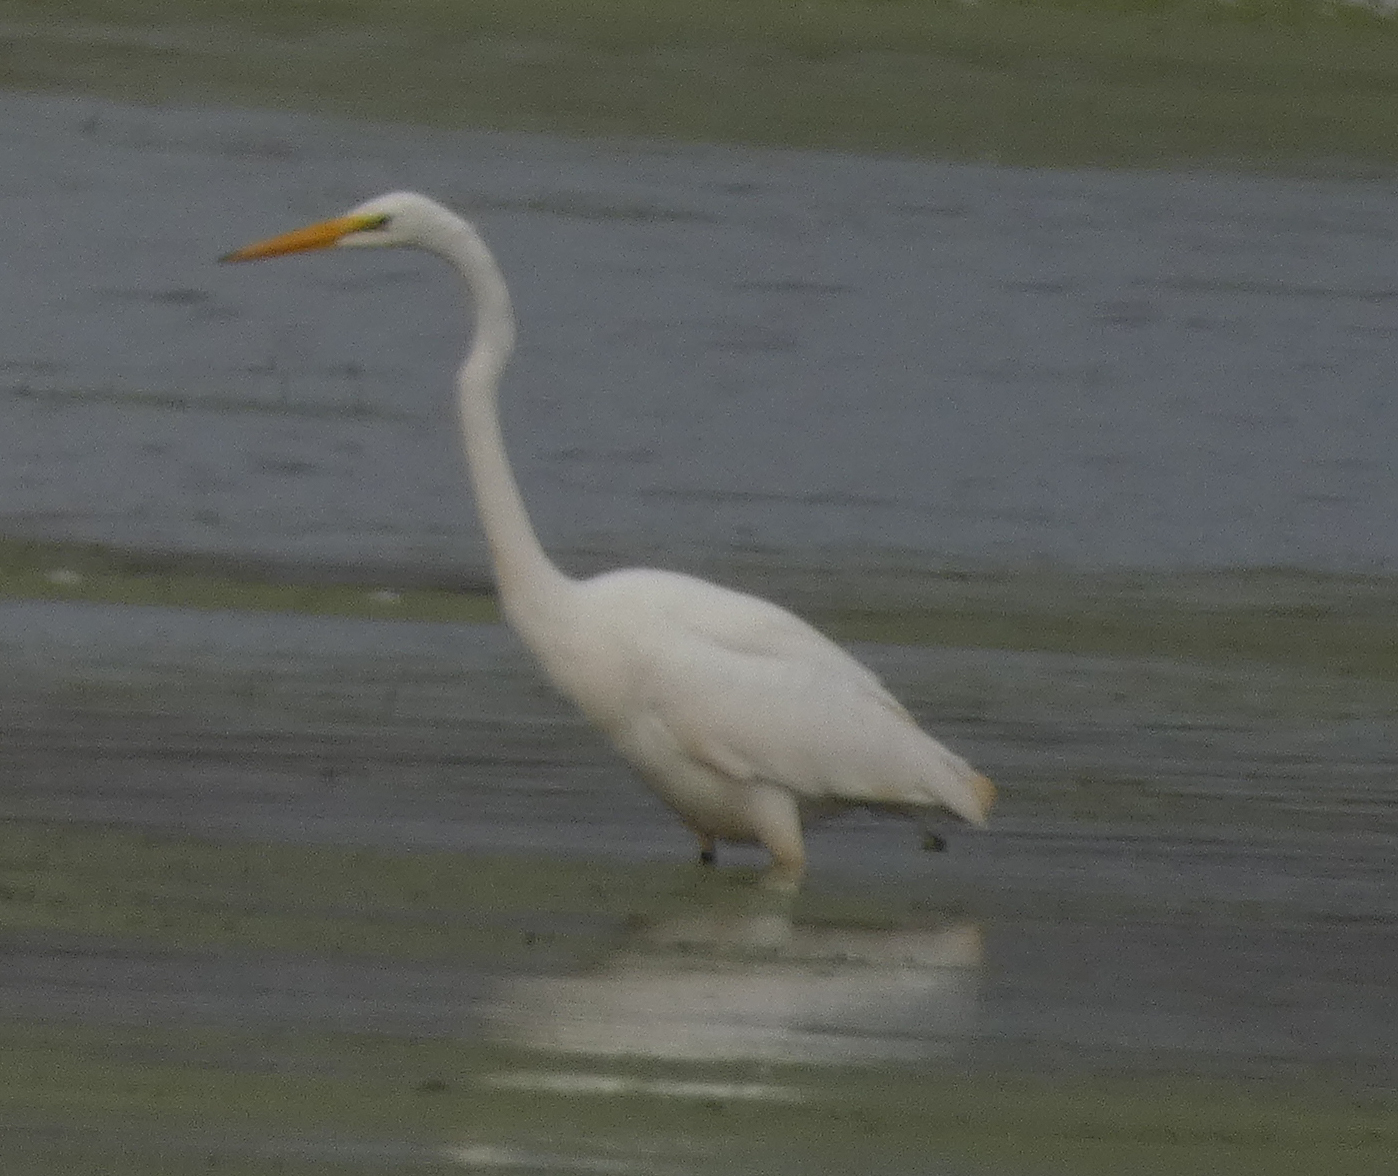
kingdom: Animalia
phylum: Chordata
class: Aves
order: Pelecaniformes
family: Ardeidae
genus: Ardea
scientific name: Ardea alba
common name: Great egret
